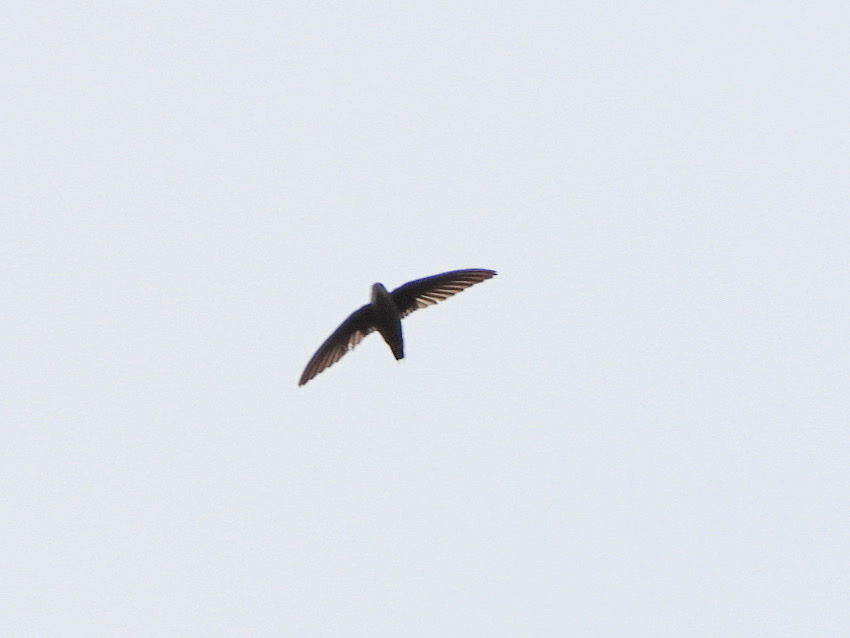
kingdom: Animalia
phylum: Chordata
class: Aves
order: Apodiformes
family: Apodidae
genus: Chaetura
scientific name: Chaetura vauxi
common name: Vaux's swift
